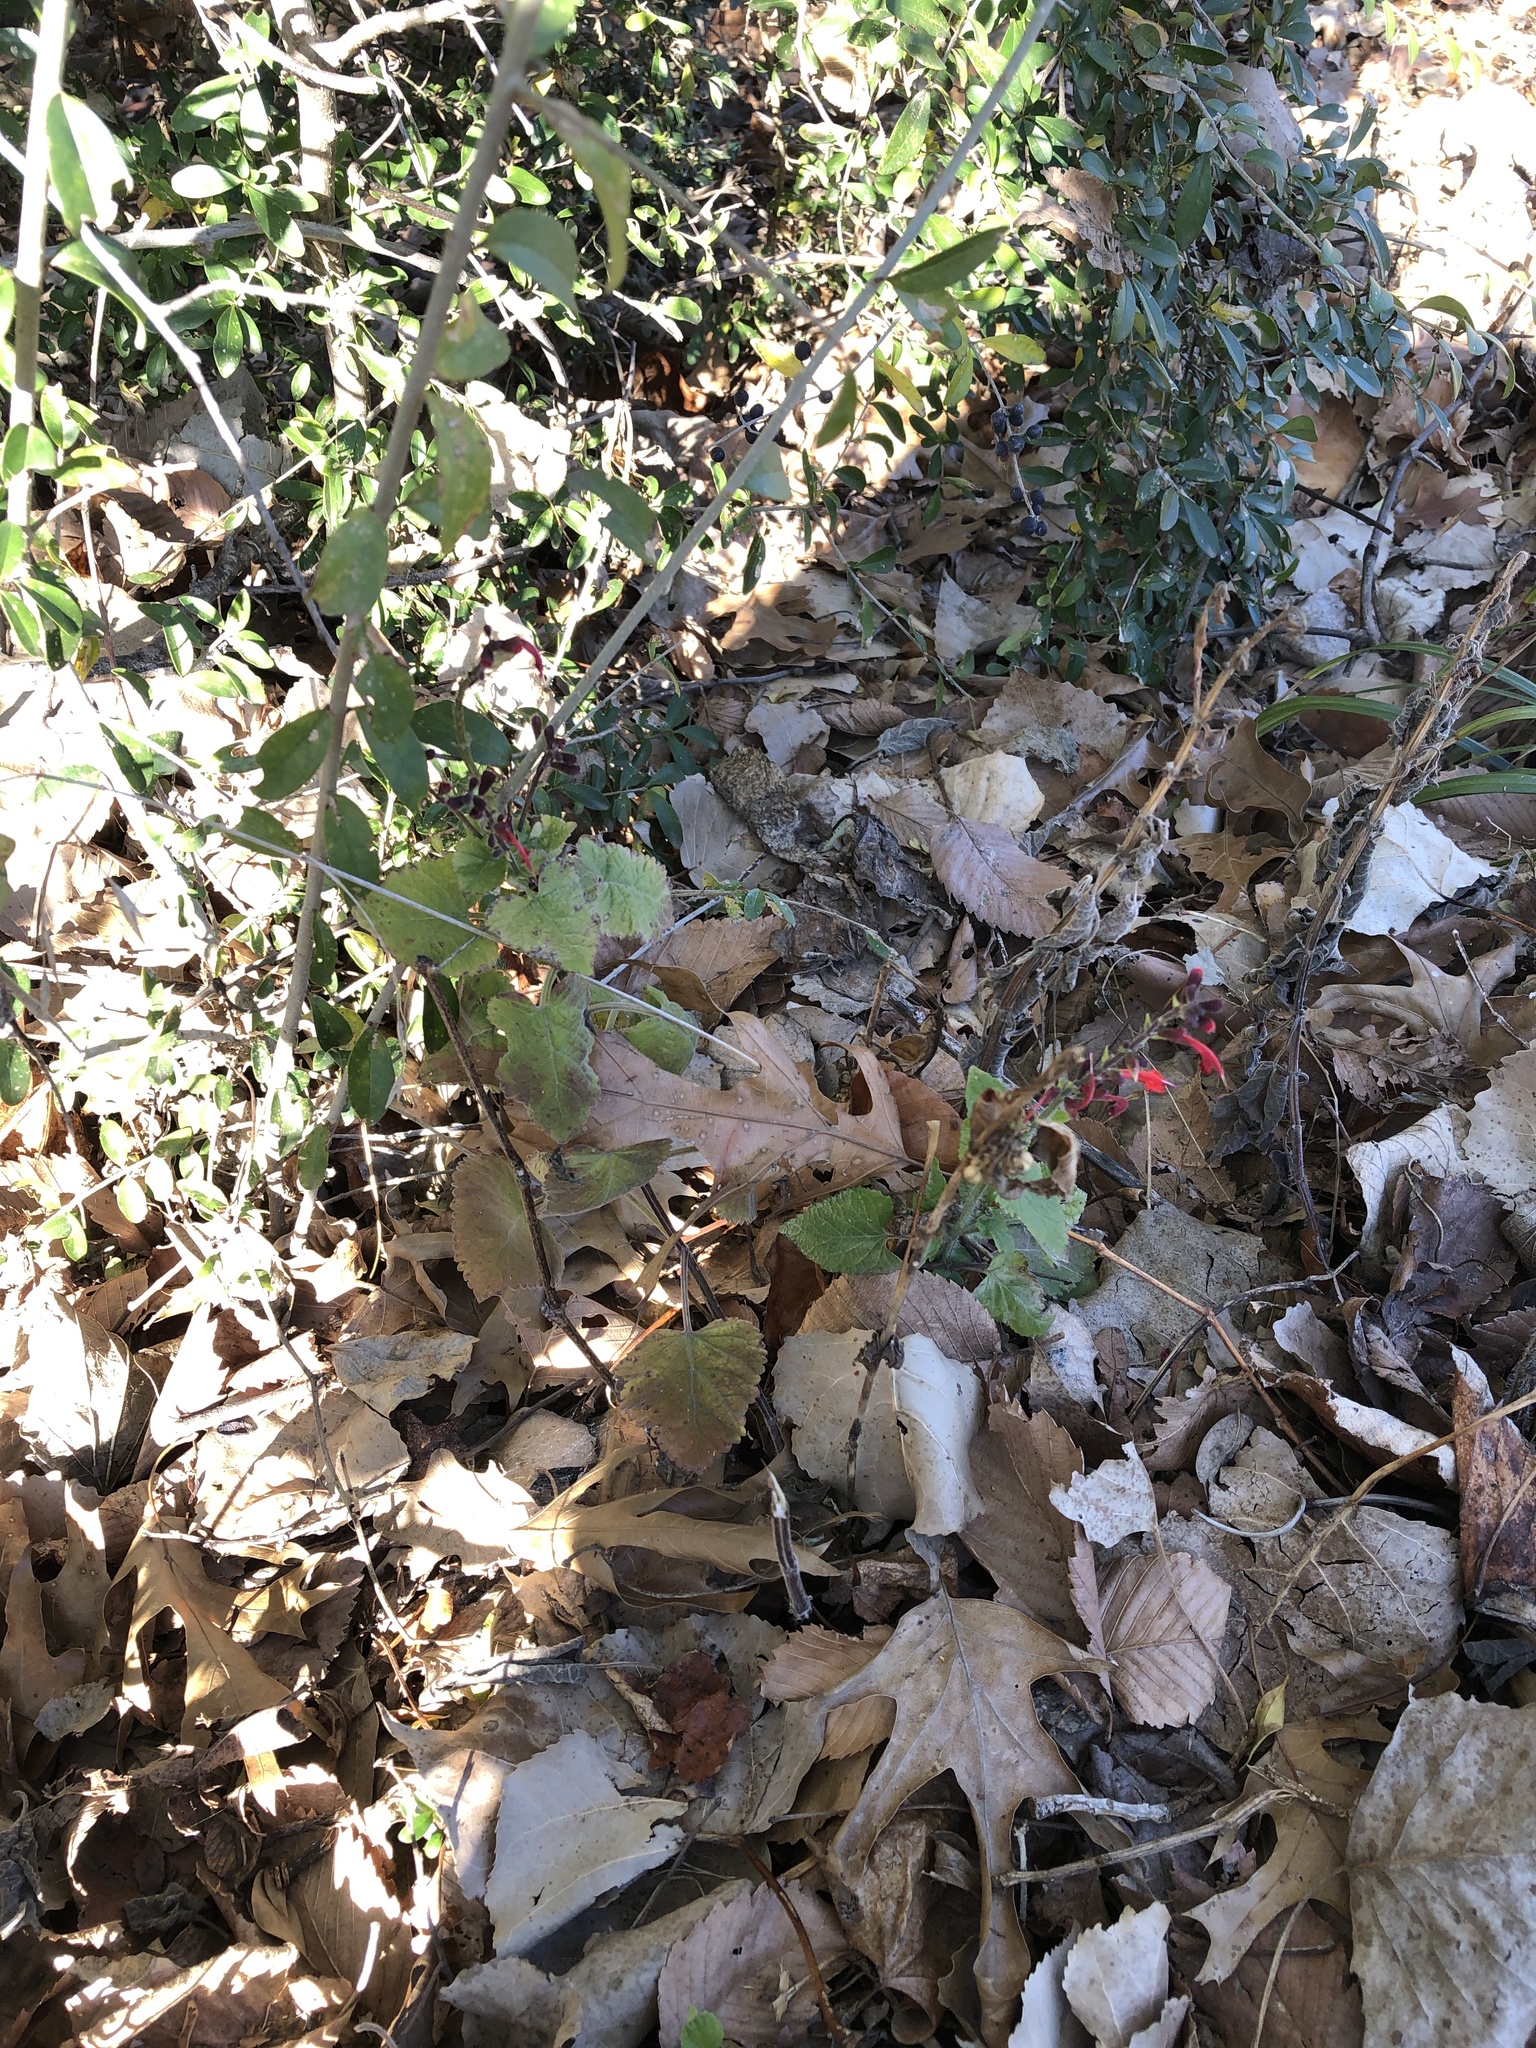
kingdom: Plantae
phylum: Tracheophyta
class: Magnoliopsida
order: Lamiales
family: Lamiaceae
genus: Salvia
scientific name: Salvia coccinea
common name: Blood sage
